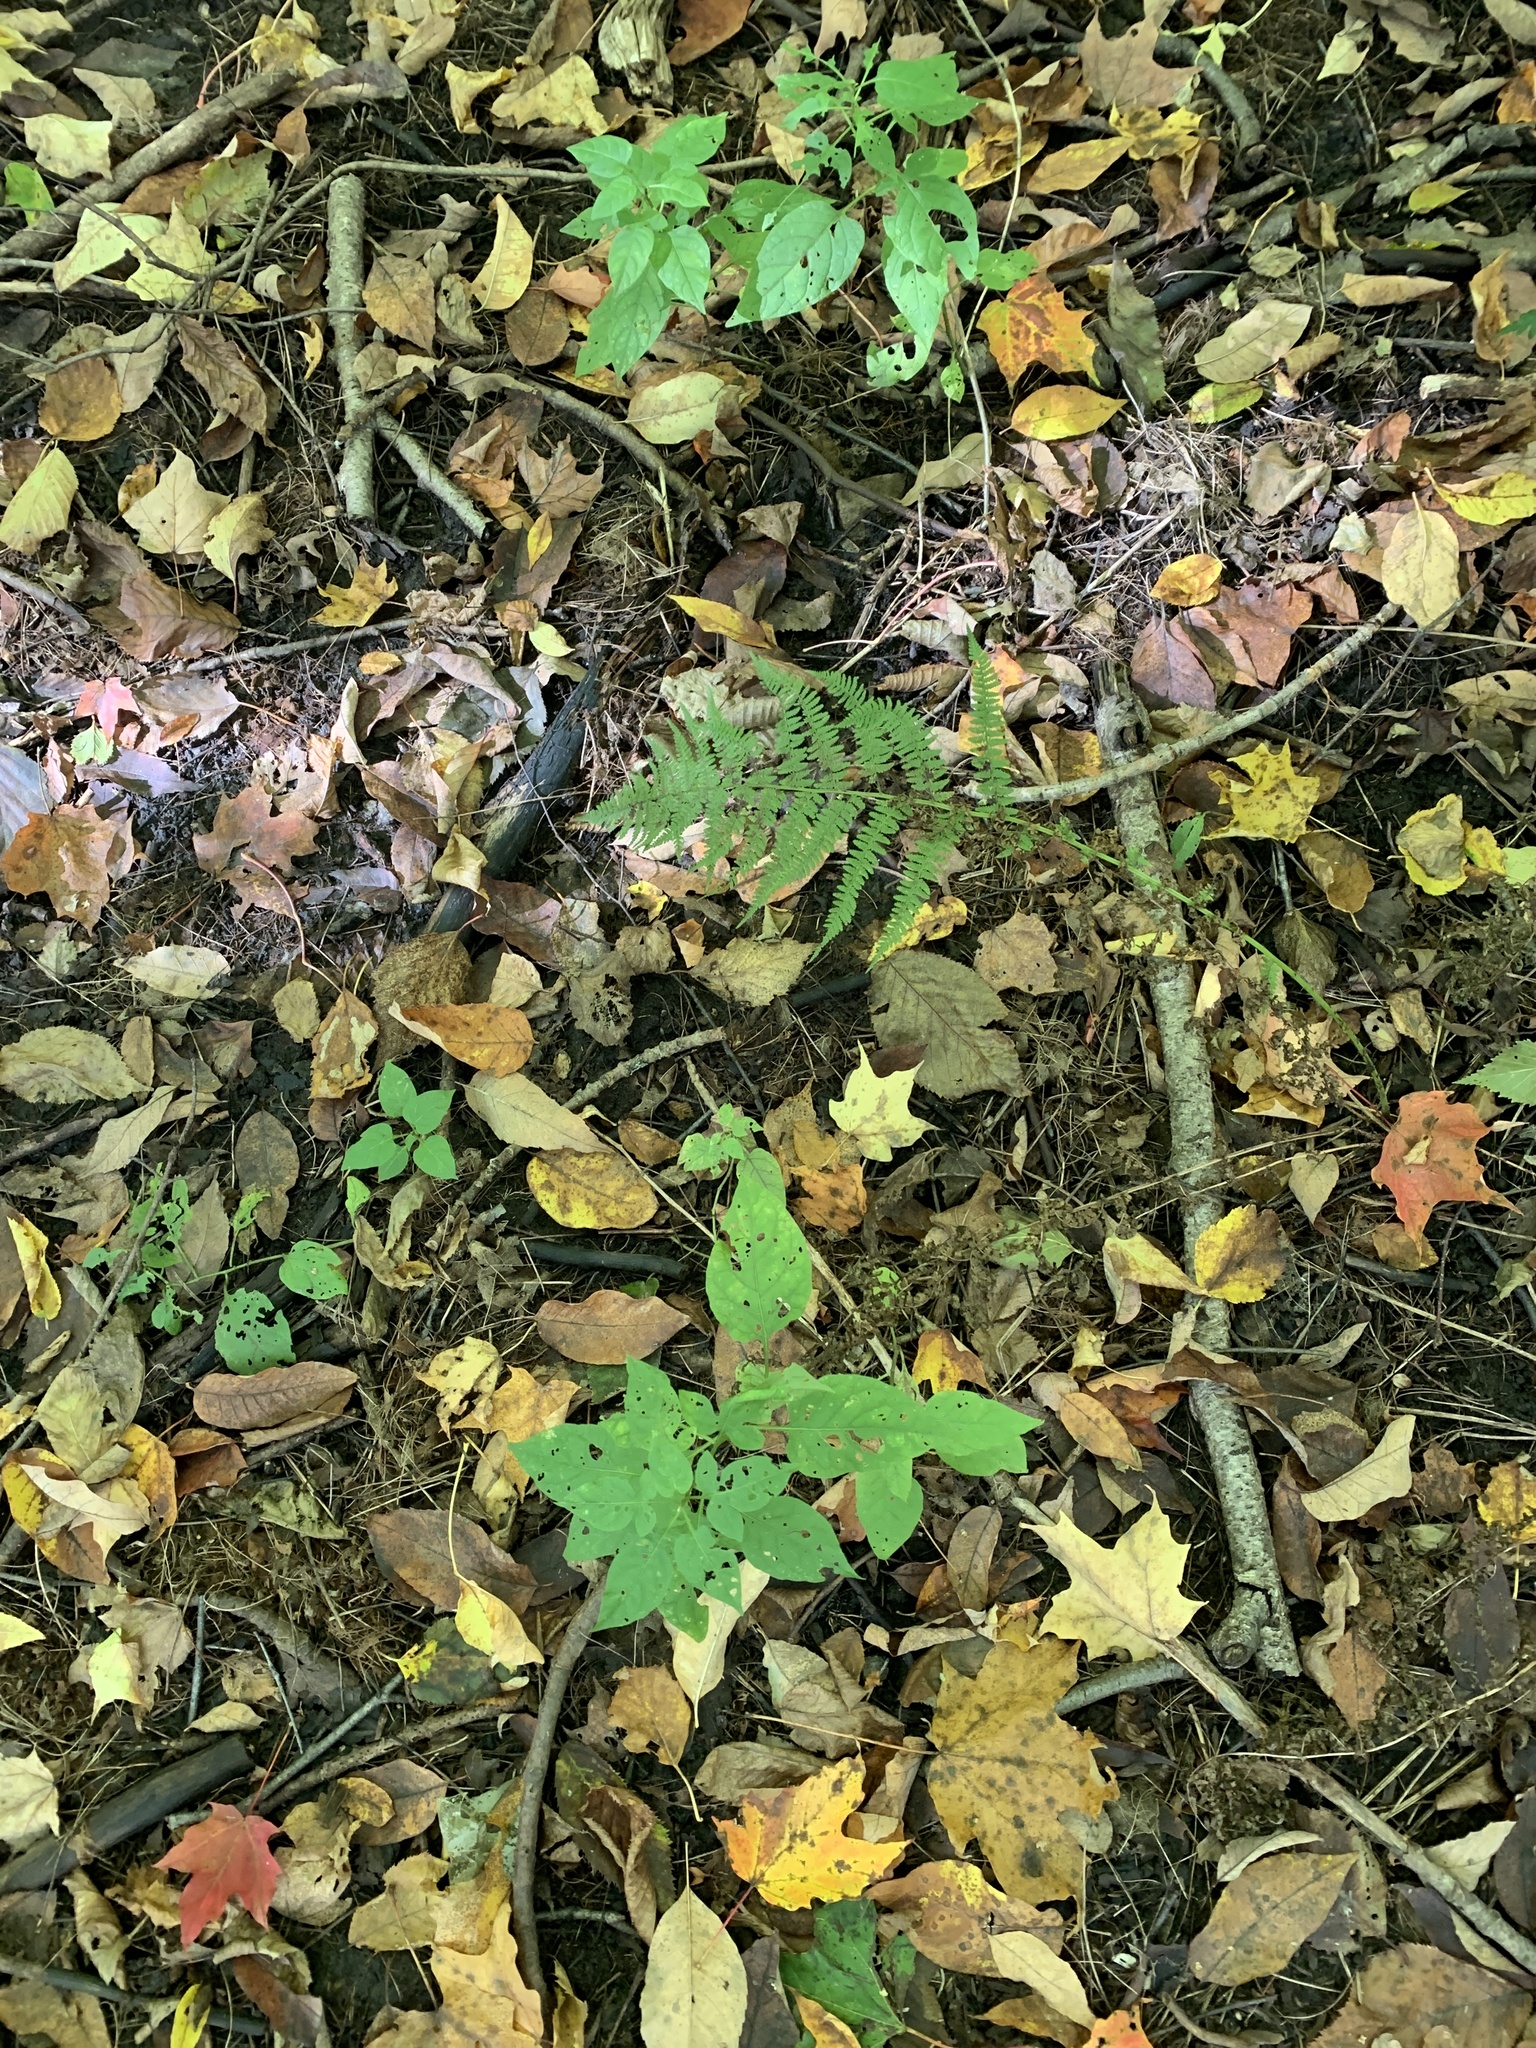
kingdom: Plantae
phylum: Tracheophyta
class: Magnoliopsida
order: Solanales
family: Solanaceae
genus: Solanum
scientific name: Solanum dulcamara
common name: Climbing nightshade
